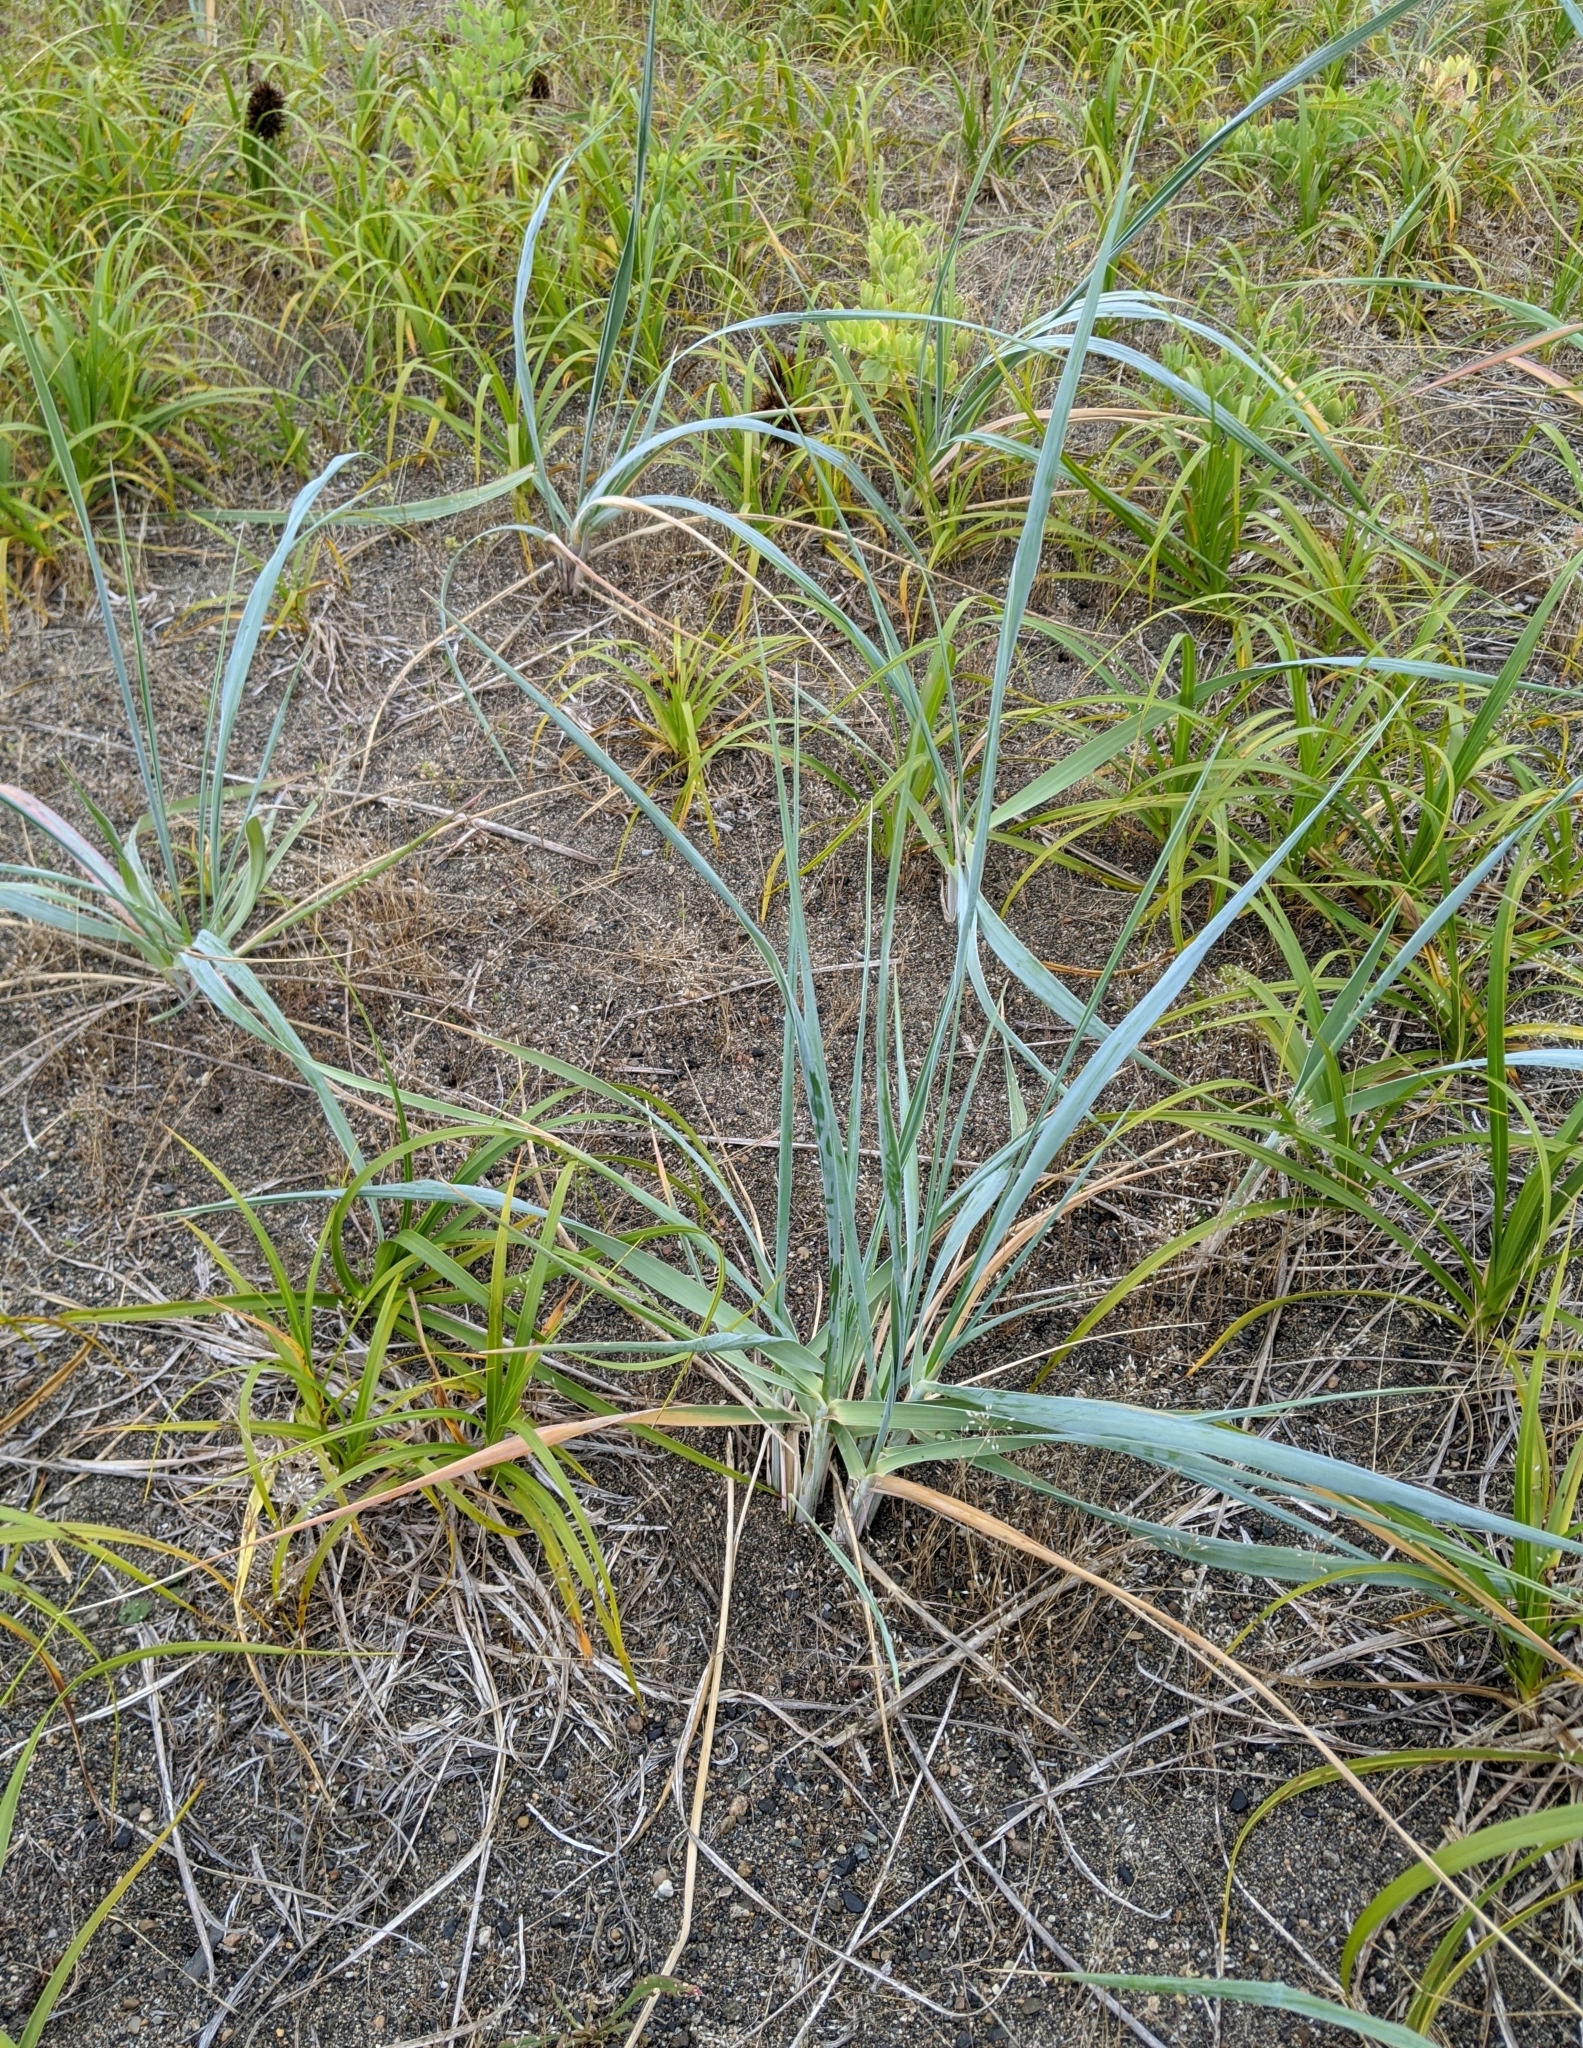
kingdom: Plantae
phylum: Tracheophyta
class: Liliopsida
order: Poales
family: Poaceae
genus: Leymus
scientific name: Leymus mollis
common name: American dune grass
